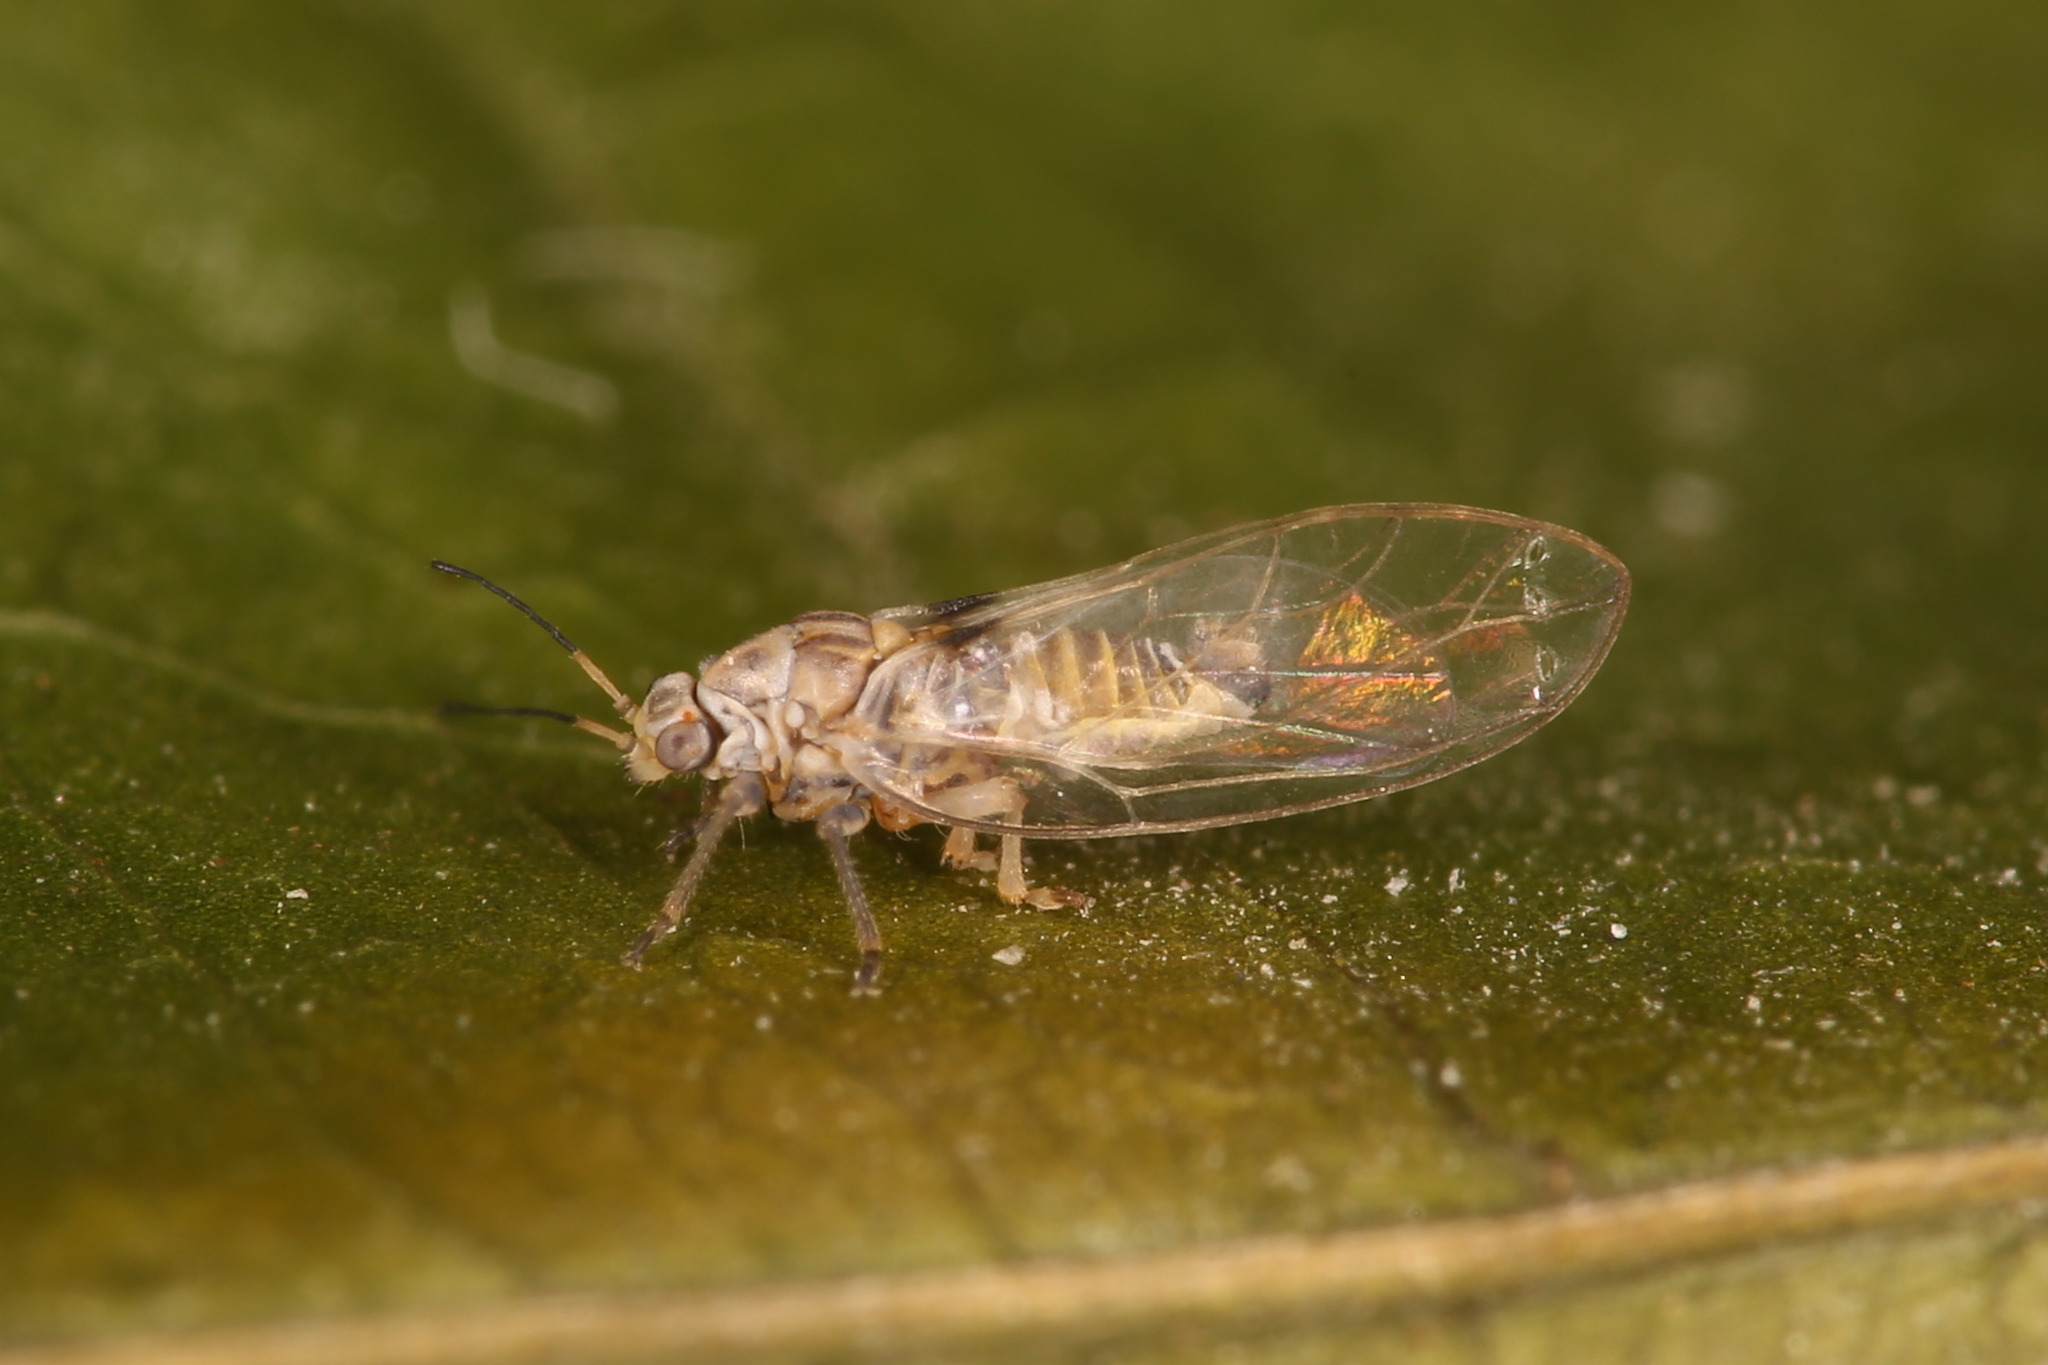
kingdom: Animalia
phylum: Arthropoda
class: Insecta
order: Hemiptera
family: Triozidae
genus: Bactericera
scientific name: Bactericera curvatinervis
